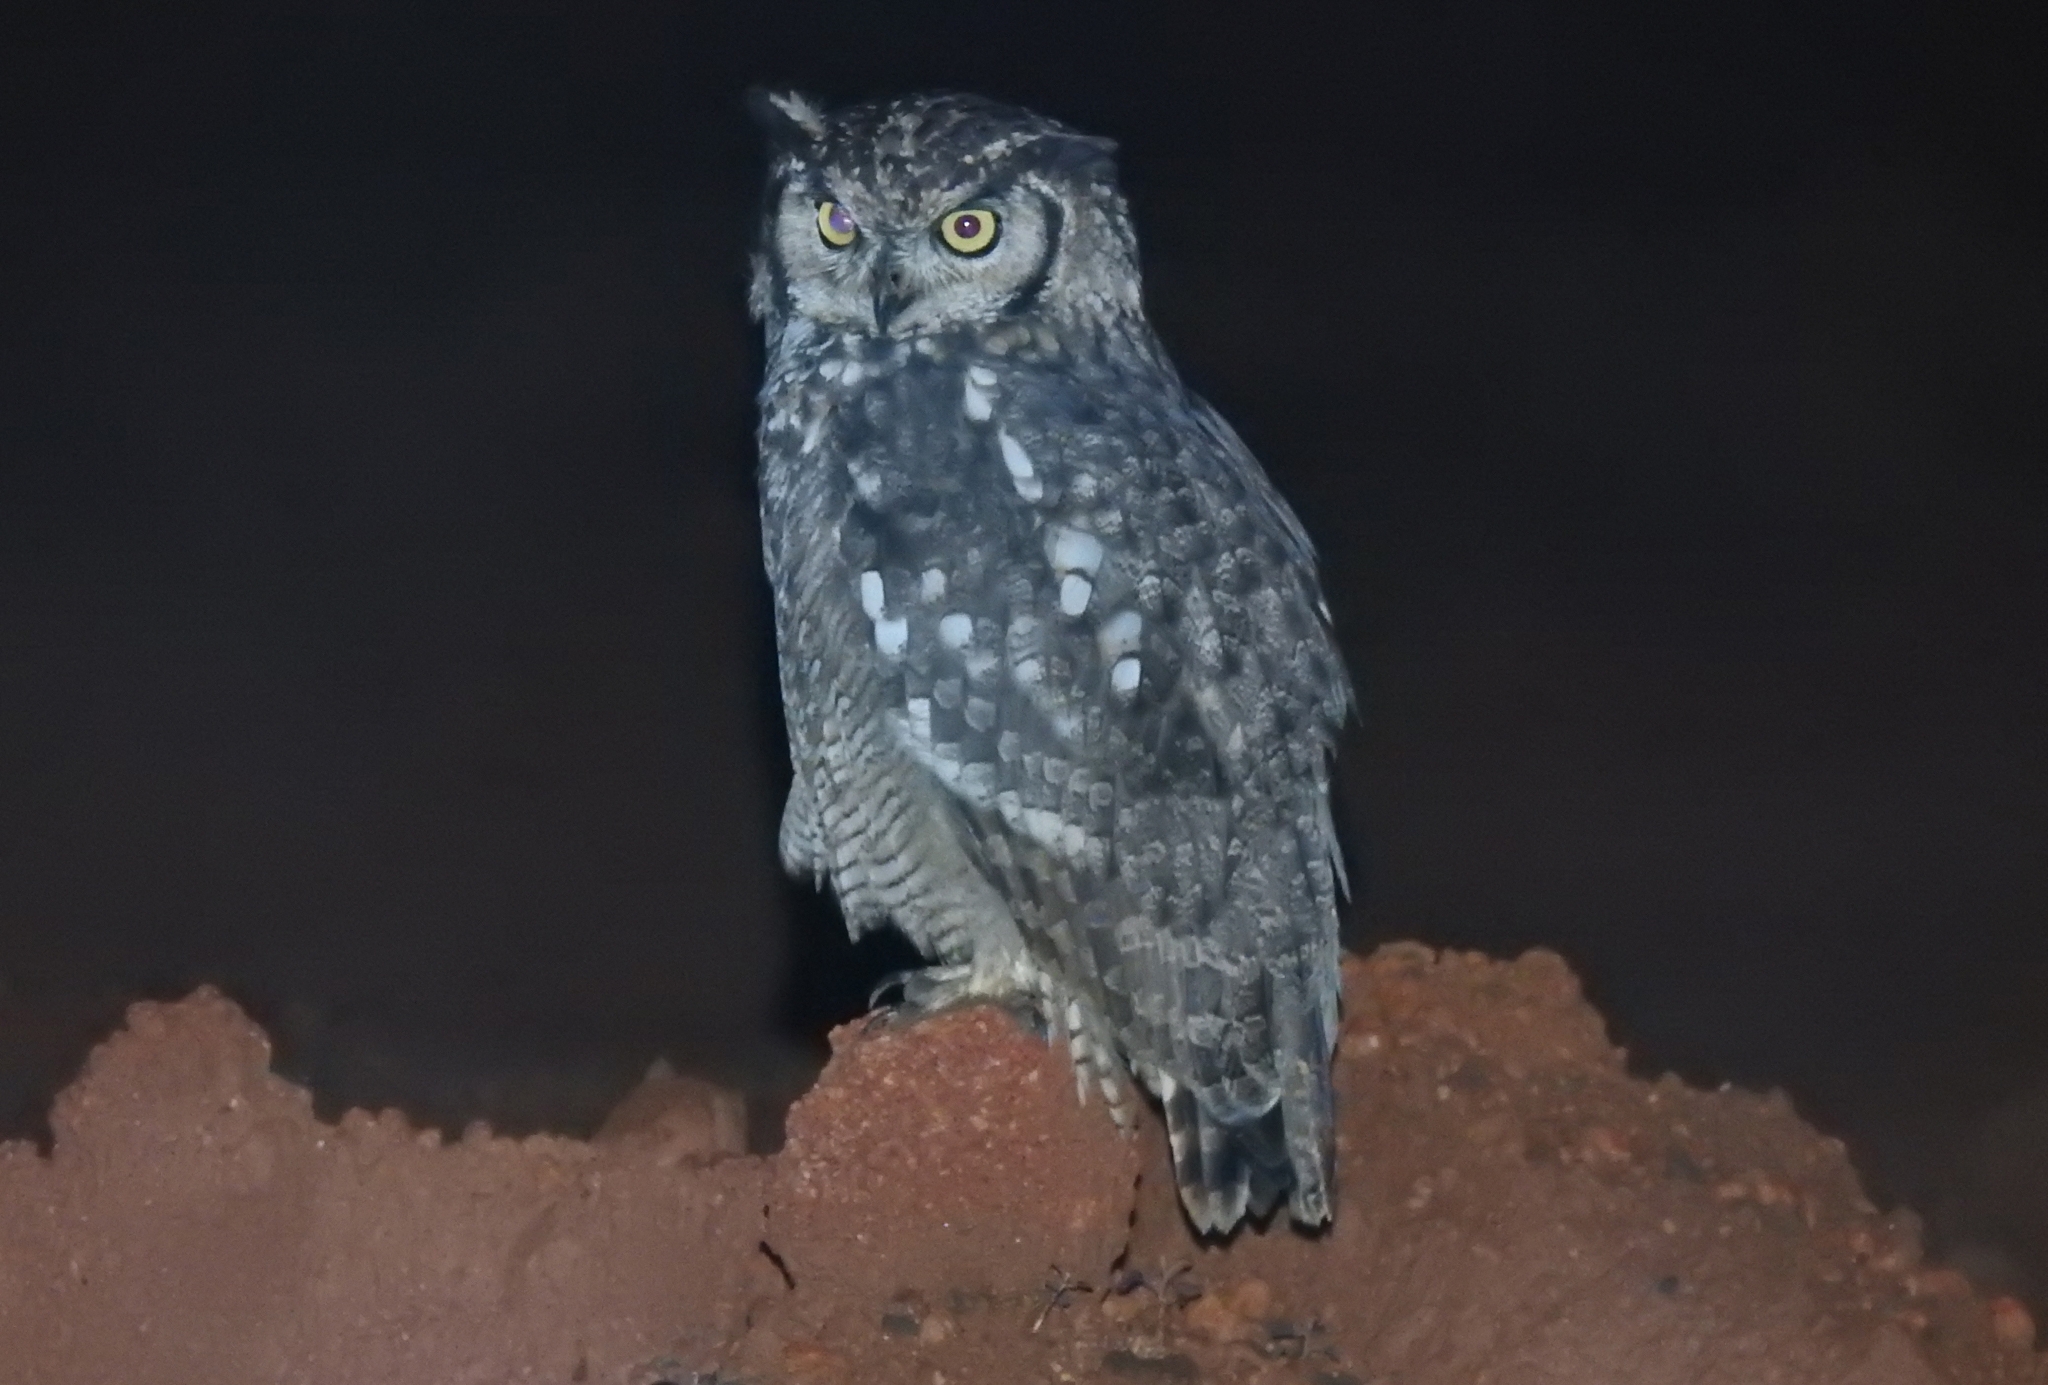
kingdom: Animalia
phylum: Chordata
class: Aves
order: Strigiformes
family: Strigidae
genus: Bubo
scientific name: Bubo africanus
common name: Spotted eagle-owl
